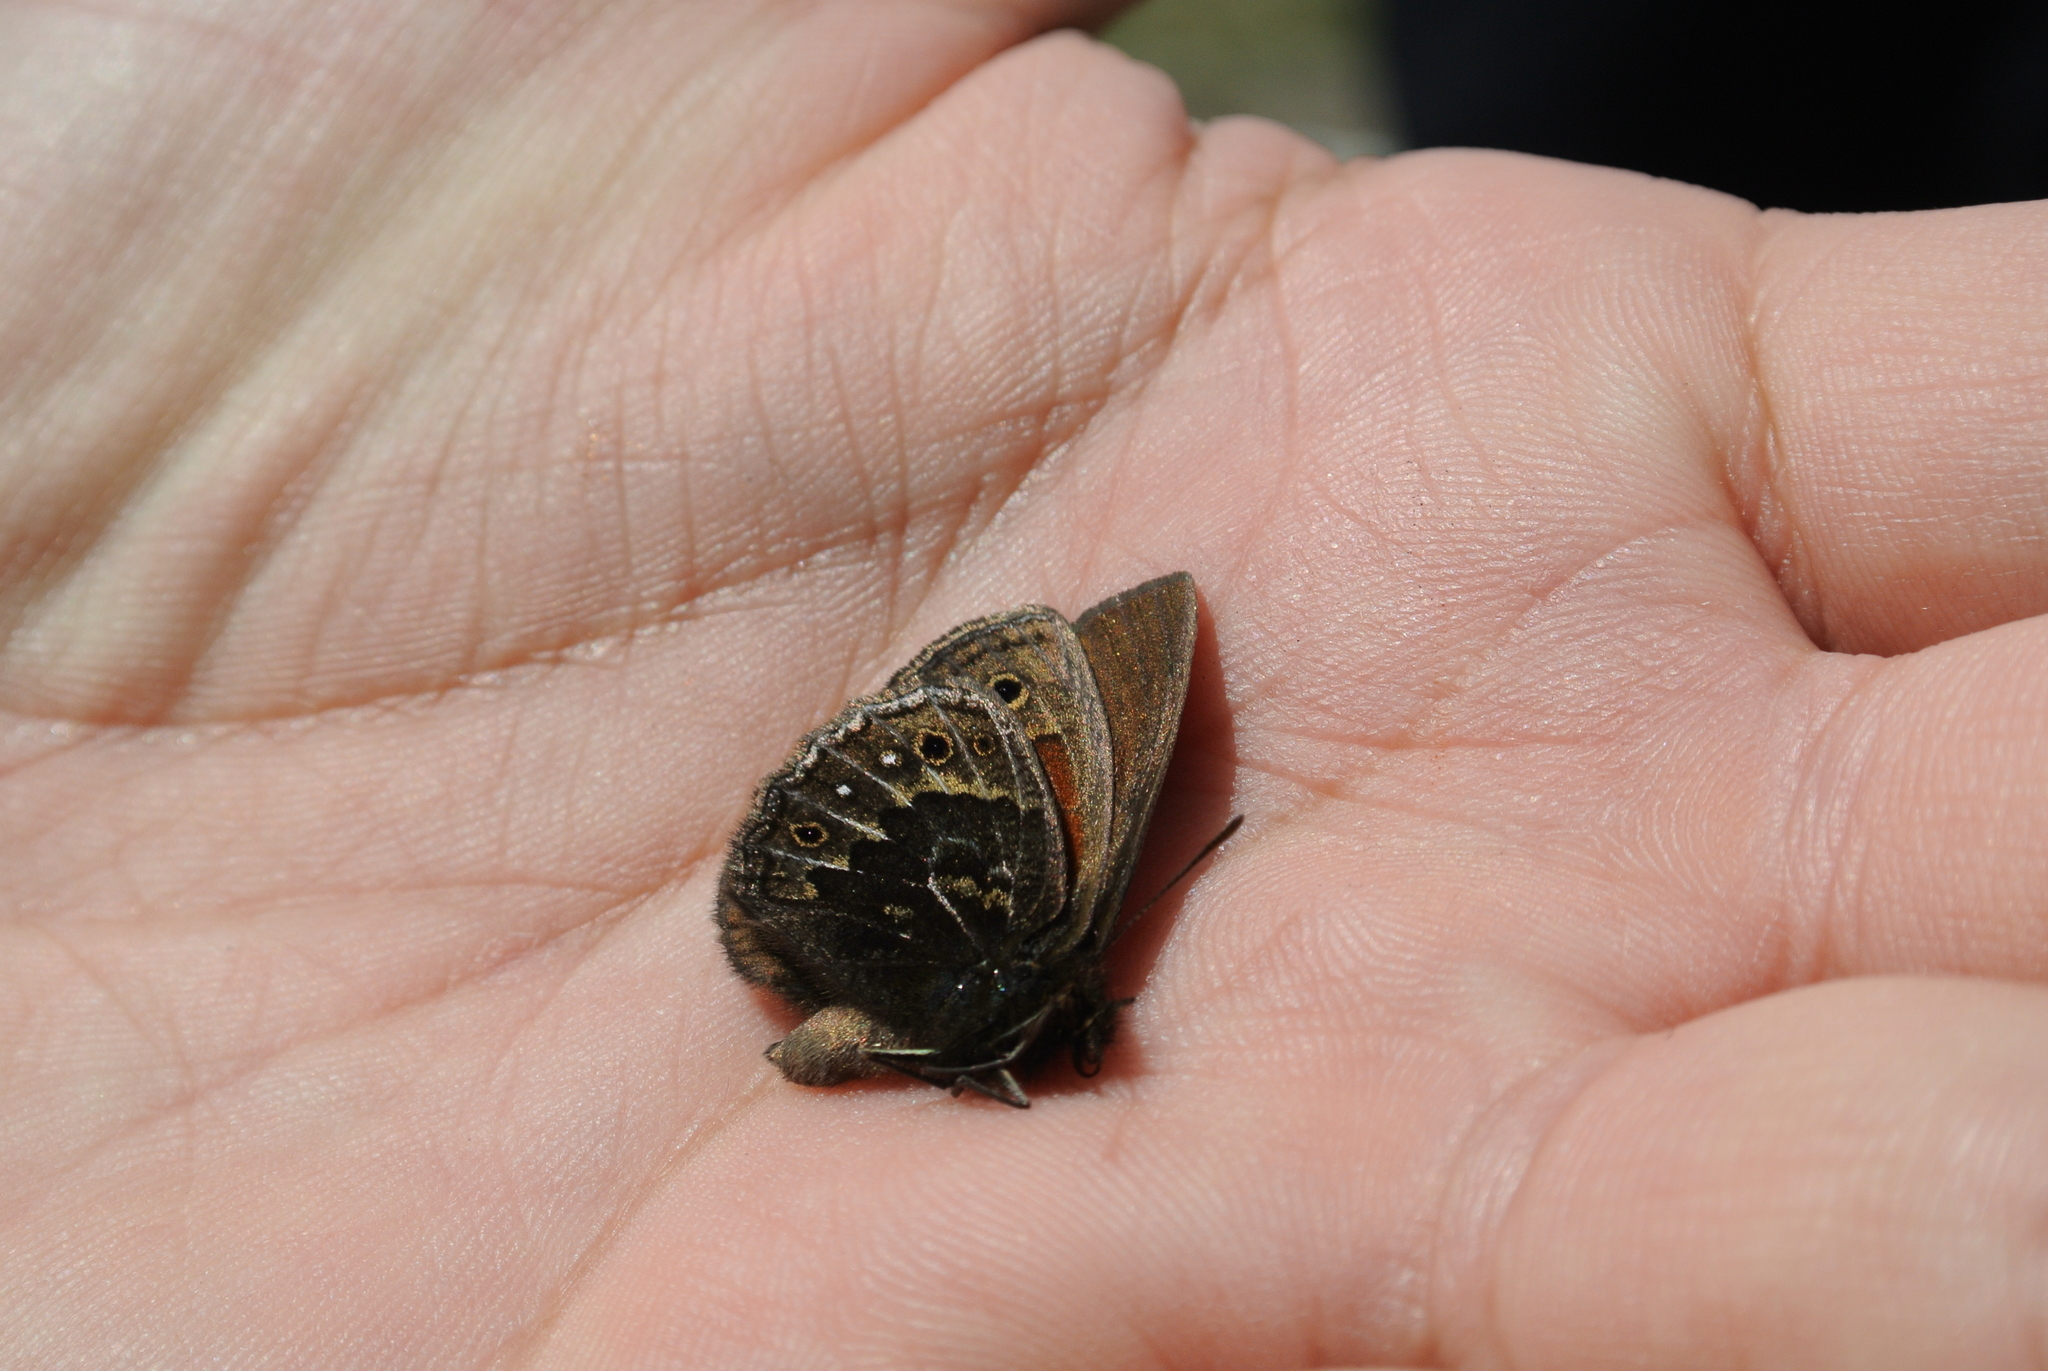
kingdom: Animalia
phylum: Arthropoda
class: Insecta
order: Lepidoptera
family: Nymphalidae
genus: Cosmosatyrus
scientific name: Cosmosatyrus leptoneuroides
